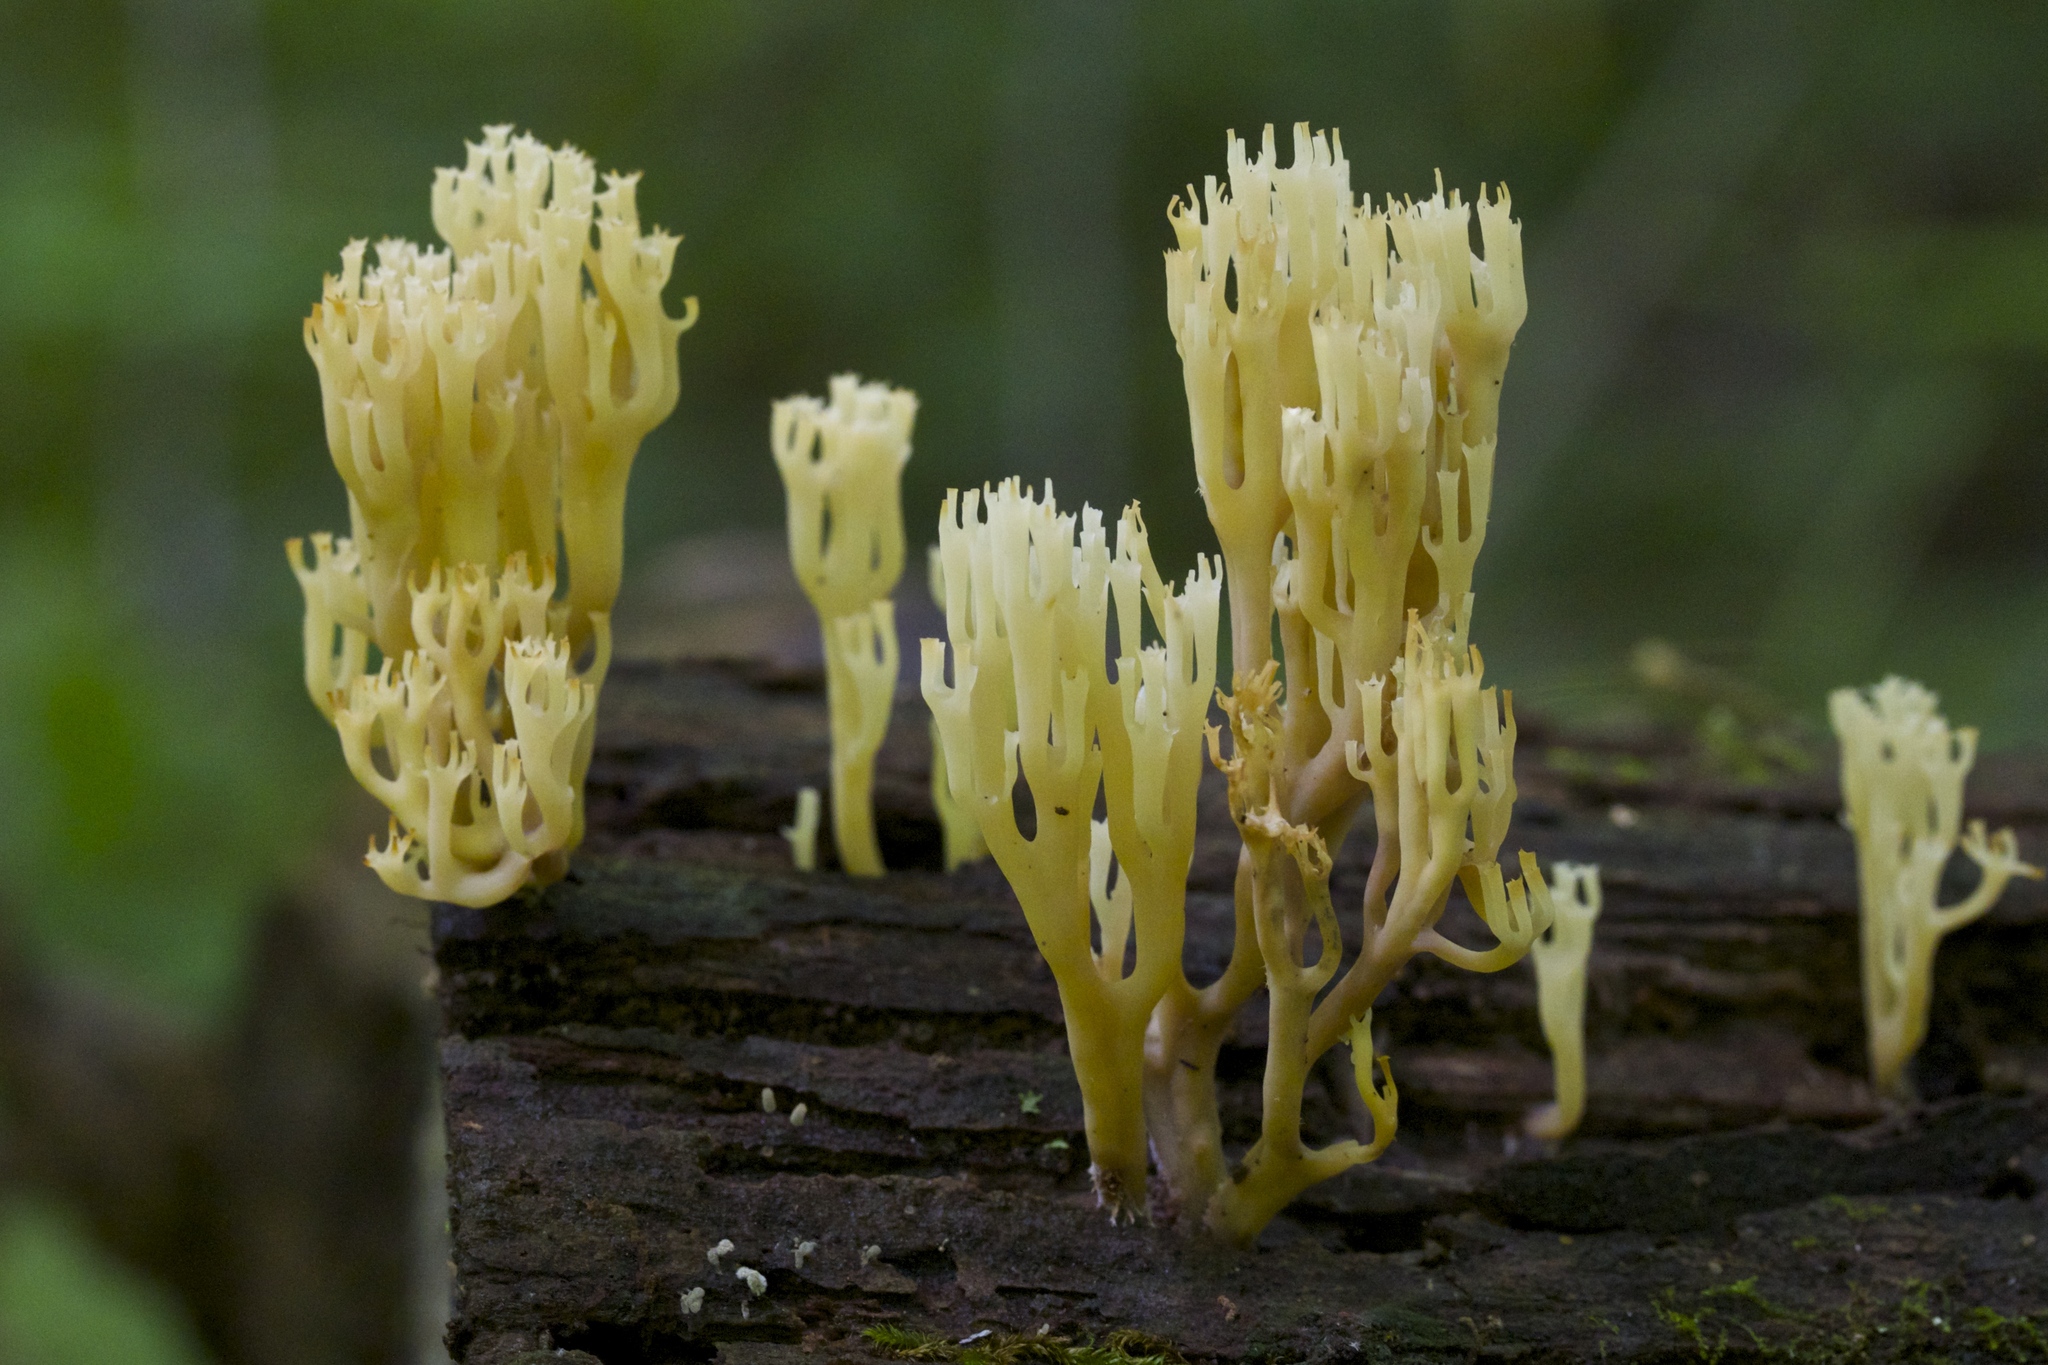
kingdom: Fungi
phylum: Basidiomycota
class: Agaricomycetes
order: Russulales
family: Auriscalpiaceae
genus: Artomyces
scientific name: Artomyces pyxidatus
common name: Crown-tipped coral fungus
